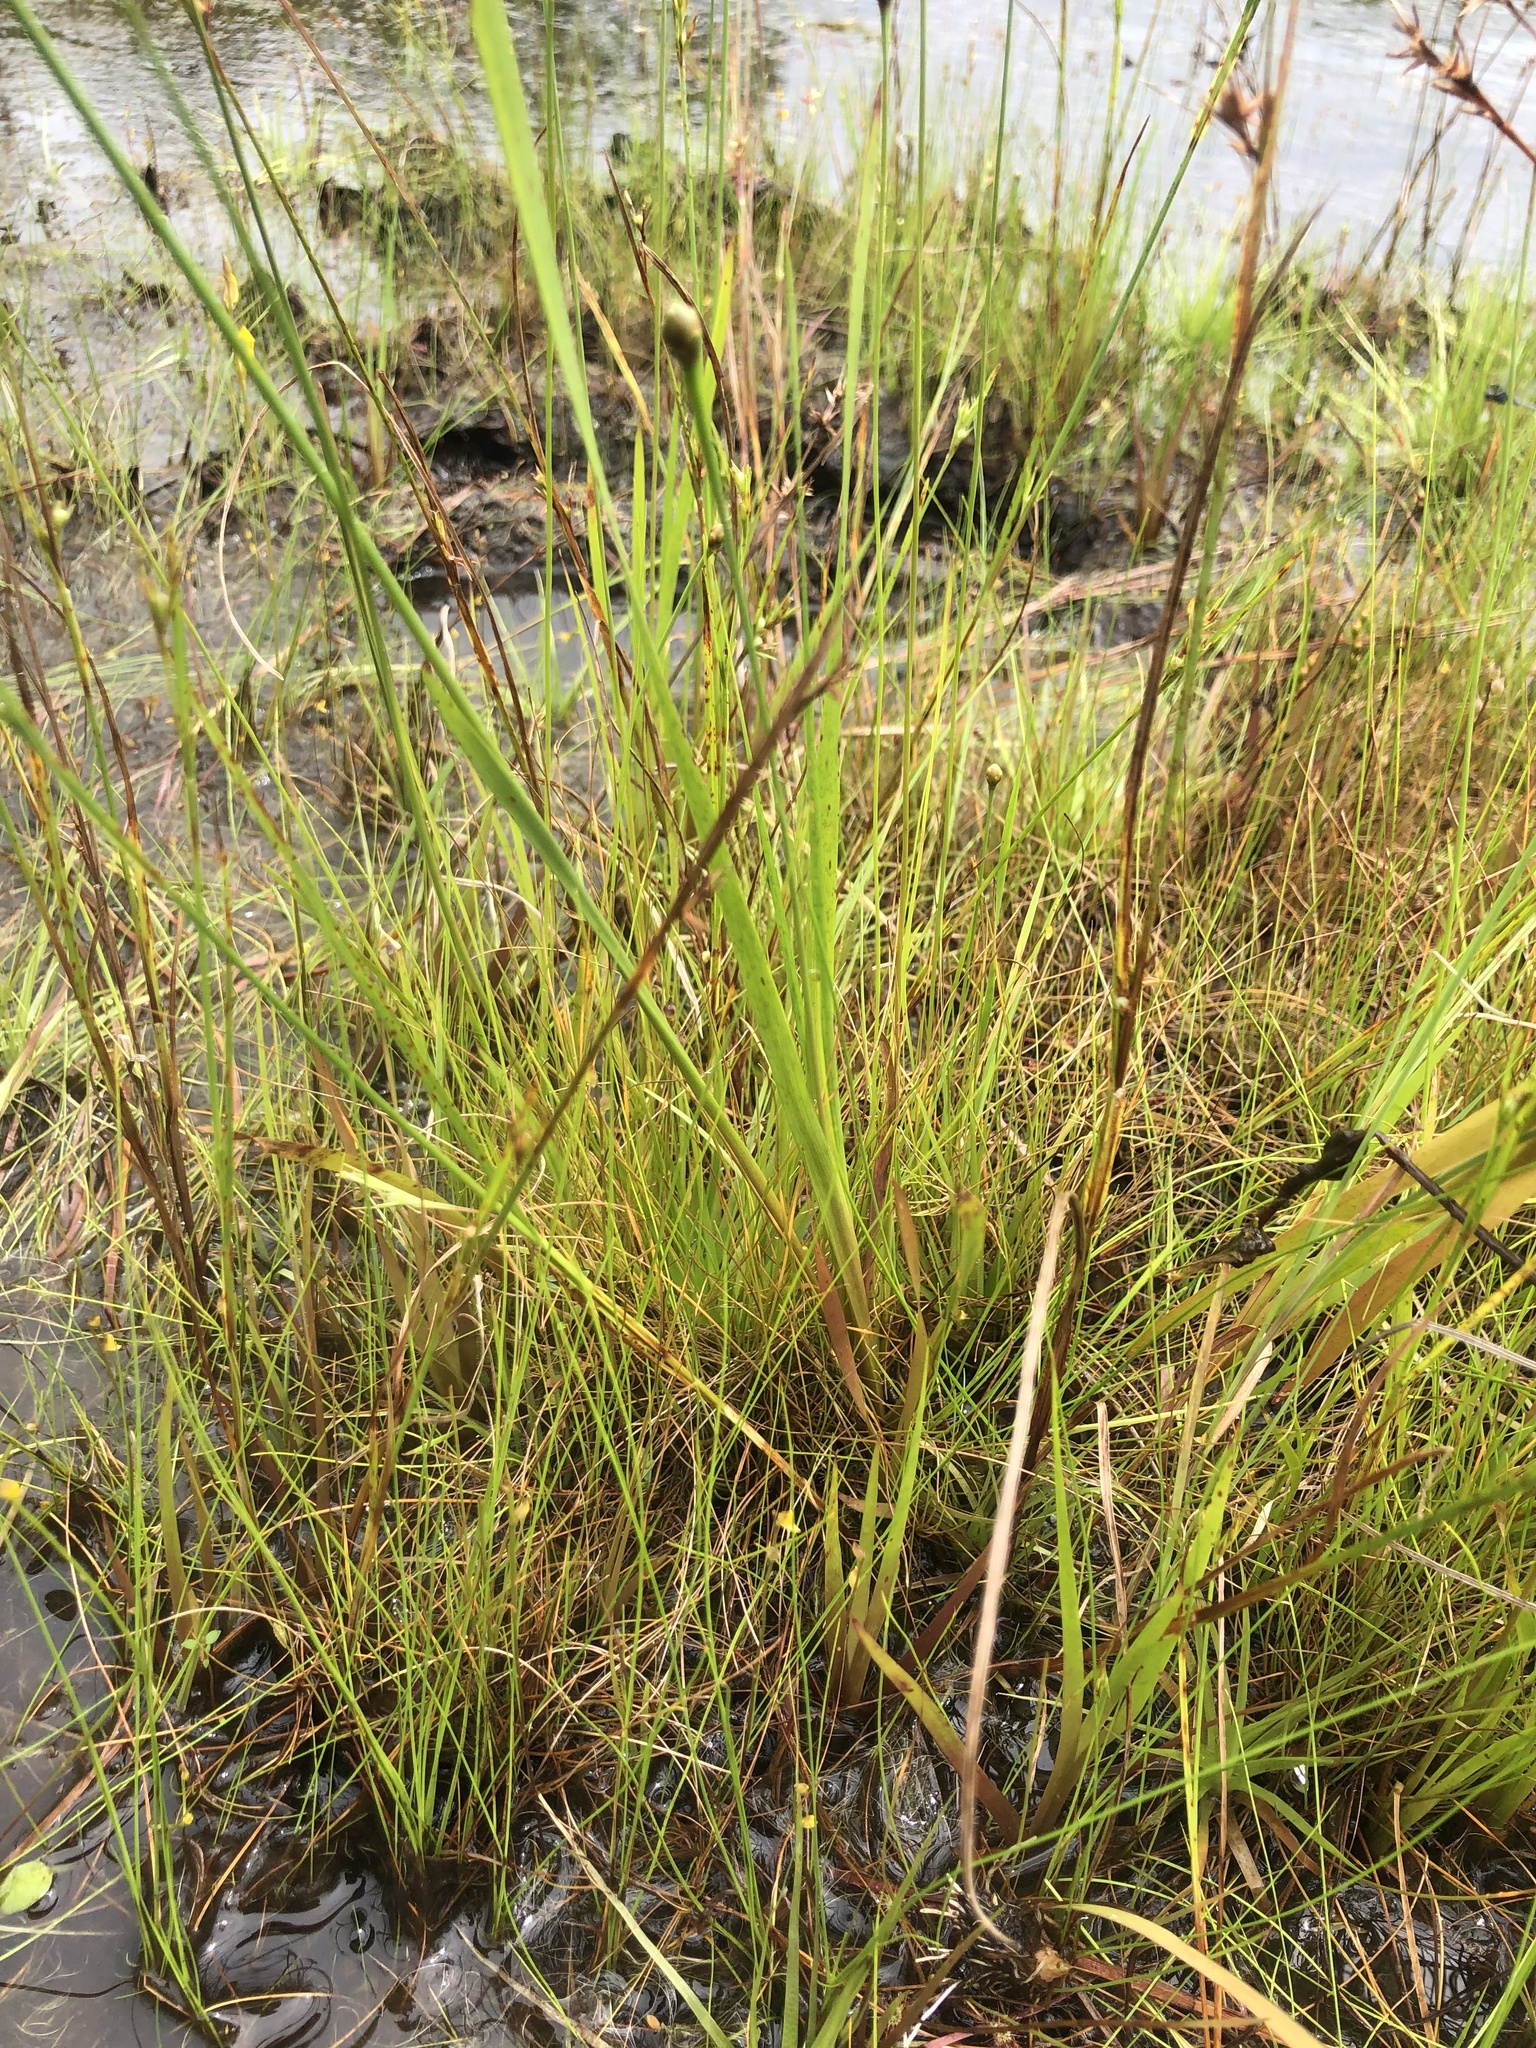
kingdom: Plantae
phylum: Tracheophyta
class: Liliopsida
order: Poales
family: Xyridaceae
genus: Xyris
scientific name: Xyris smalliana
